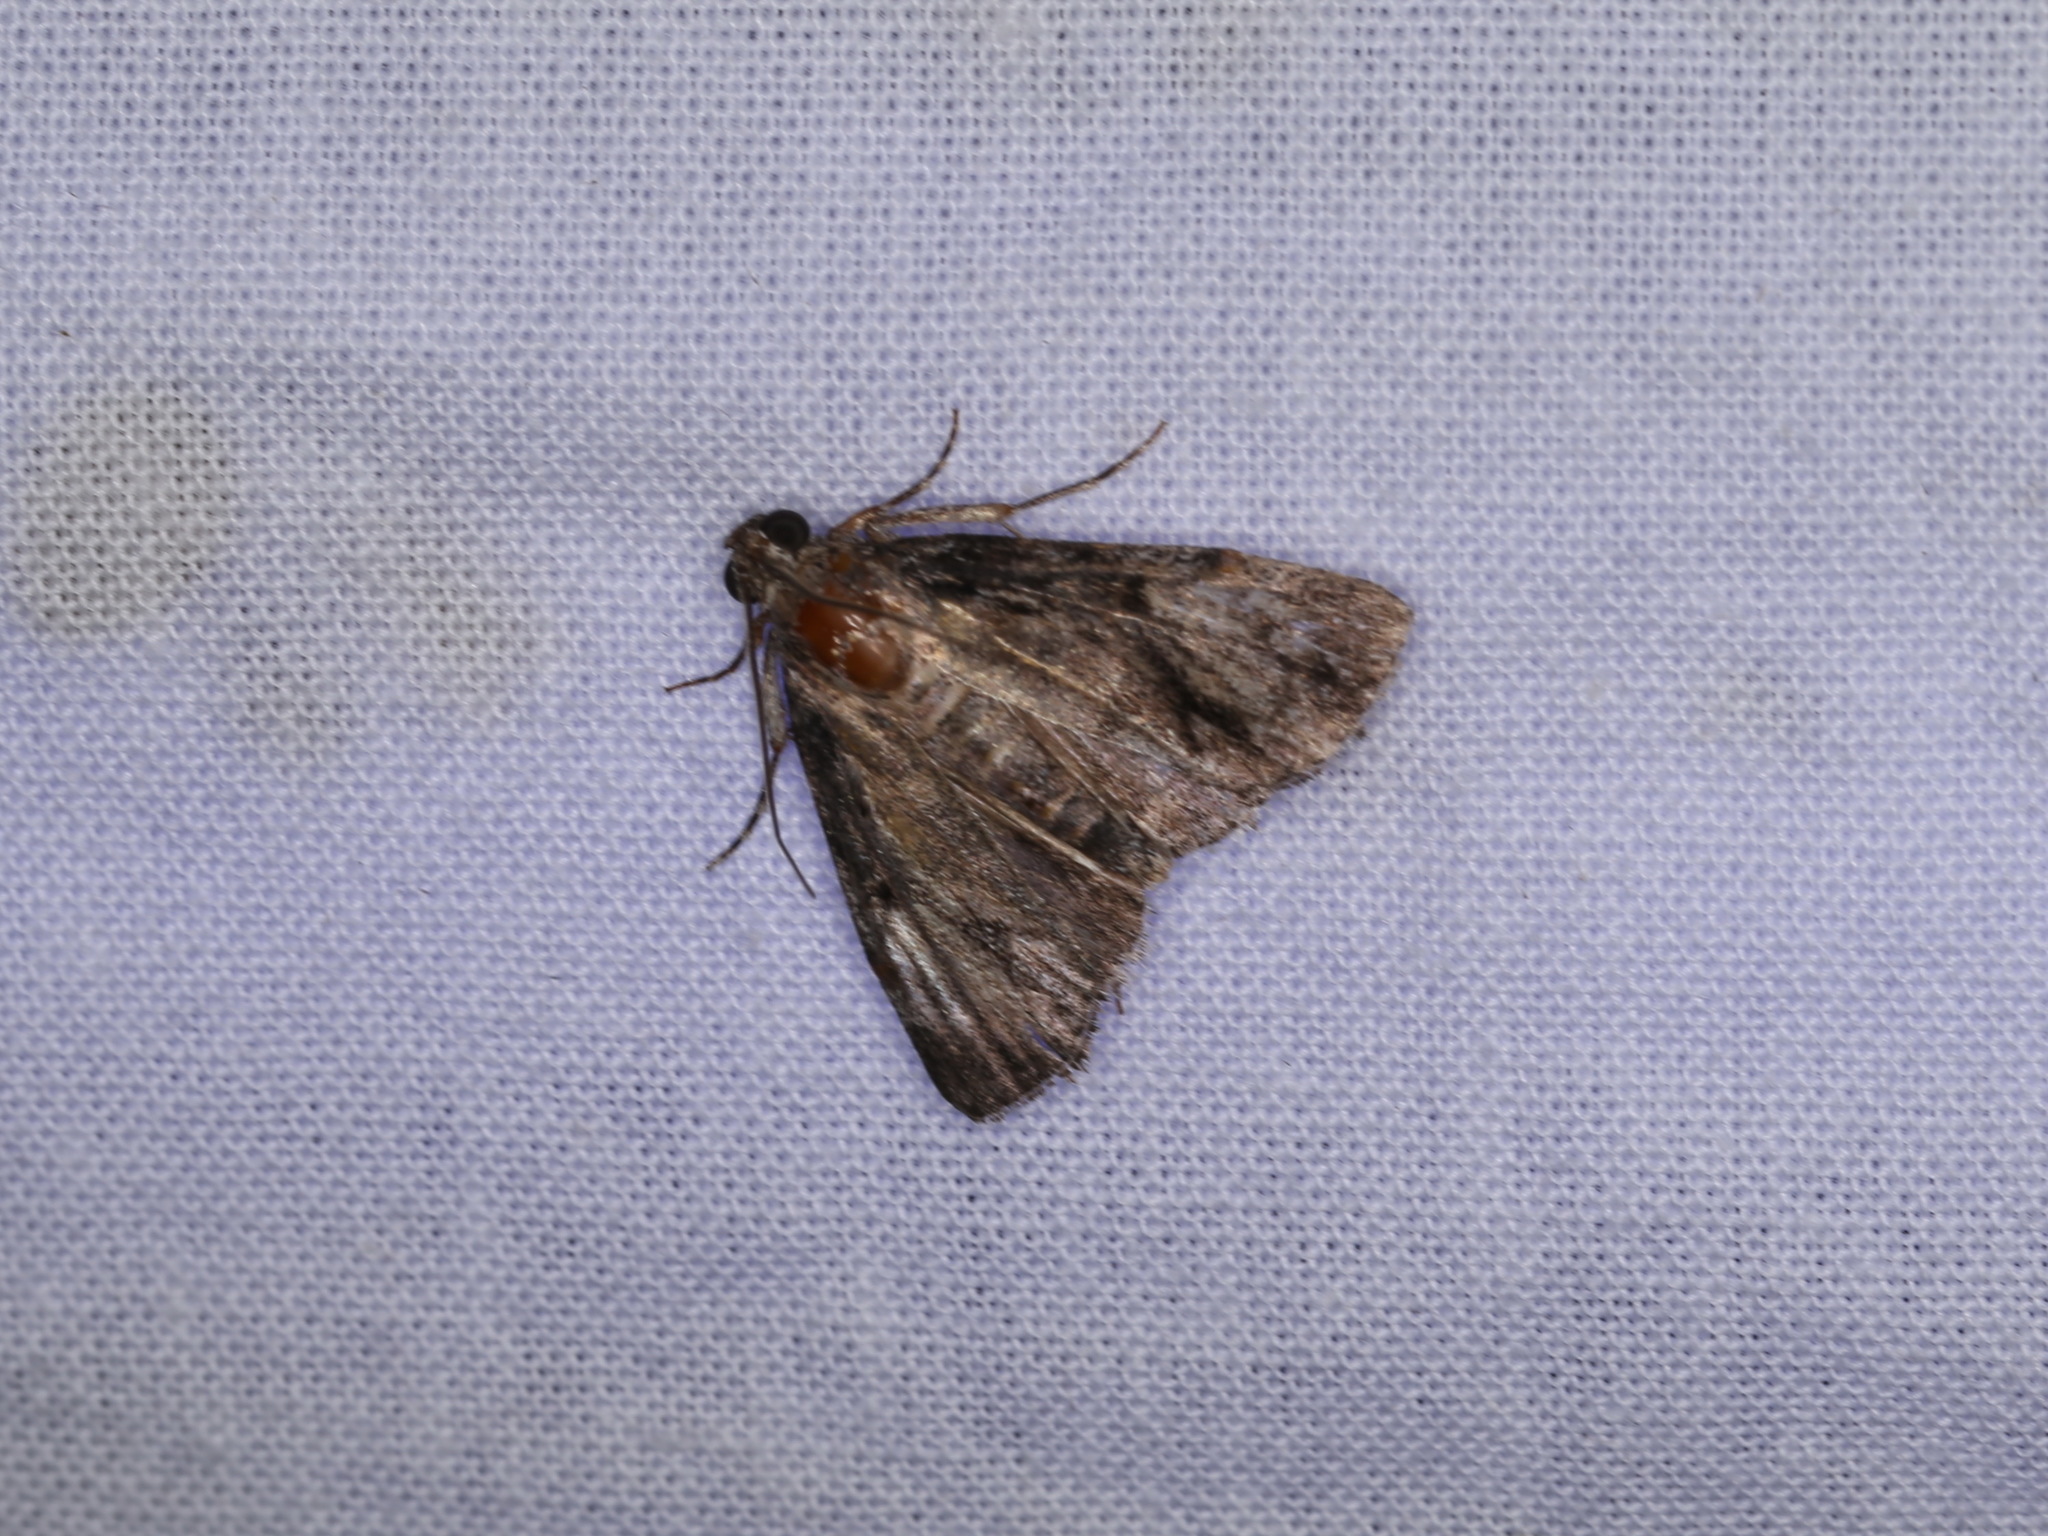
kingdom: Animalia
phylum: Arthropoda
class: Insecta
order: Lepidoptera
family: Pyralidae
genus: Salma
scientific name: Salma cholica
